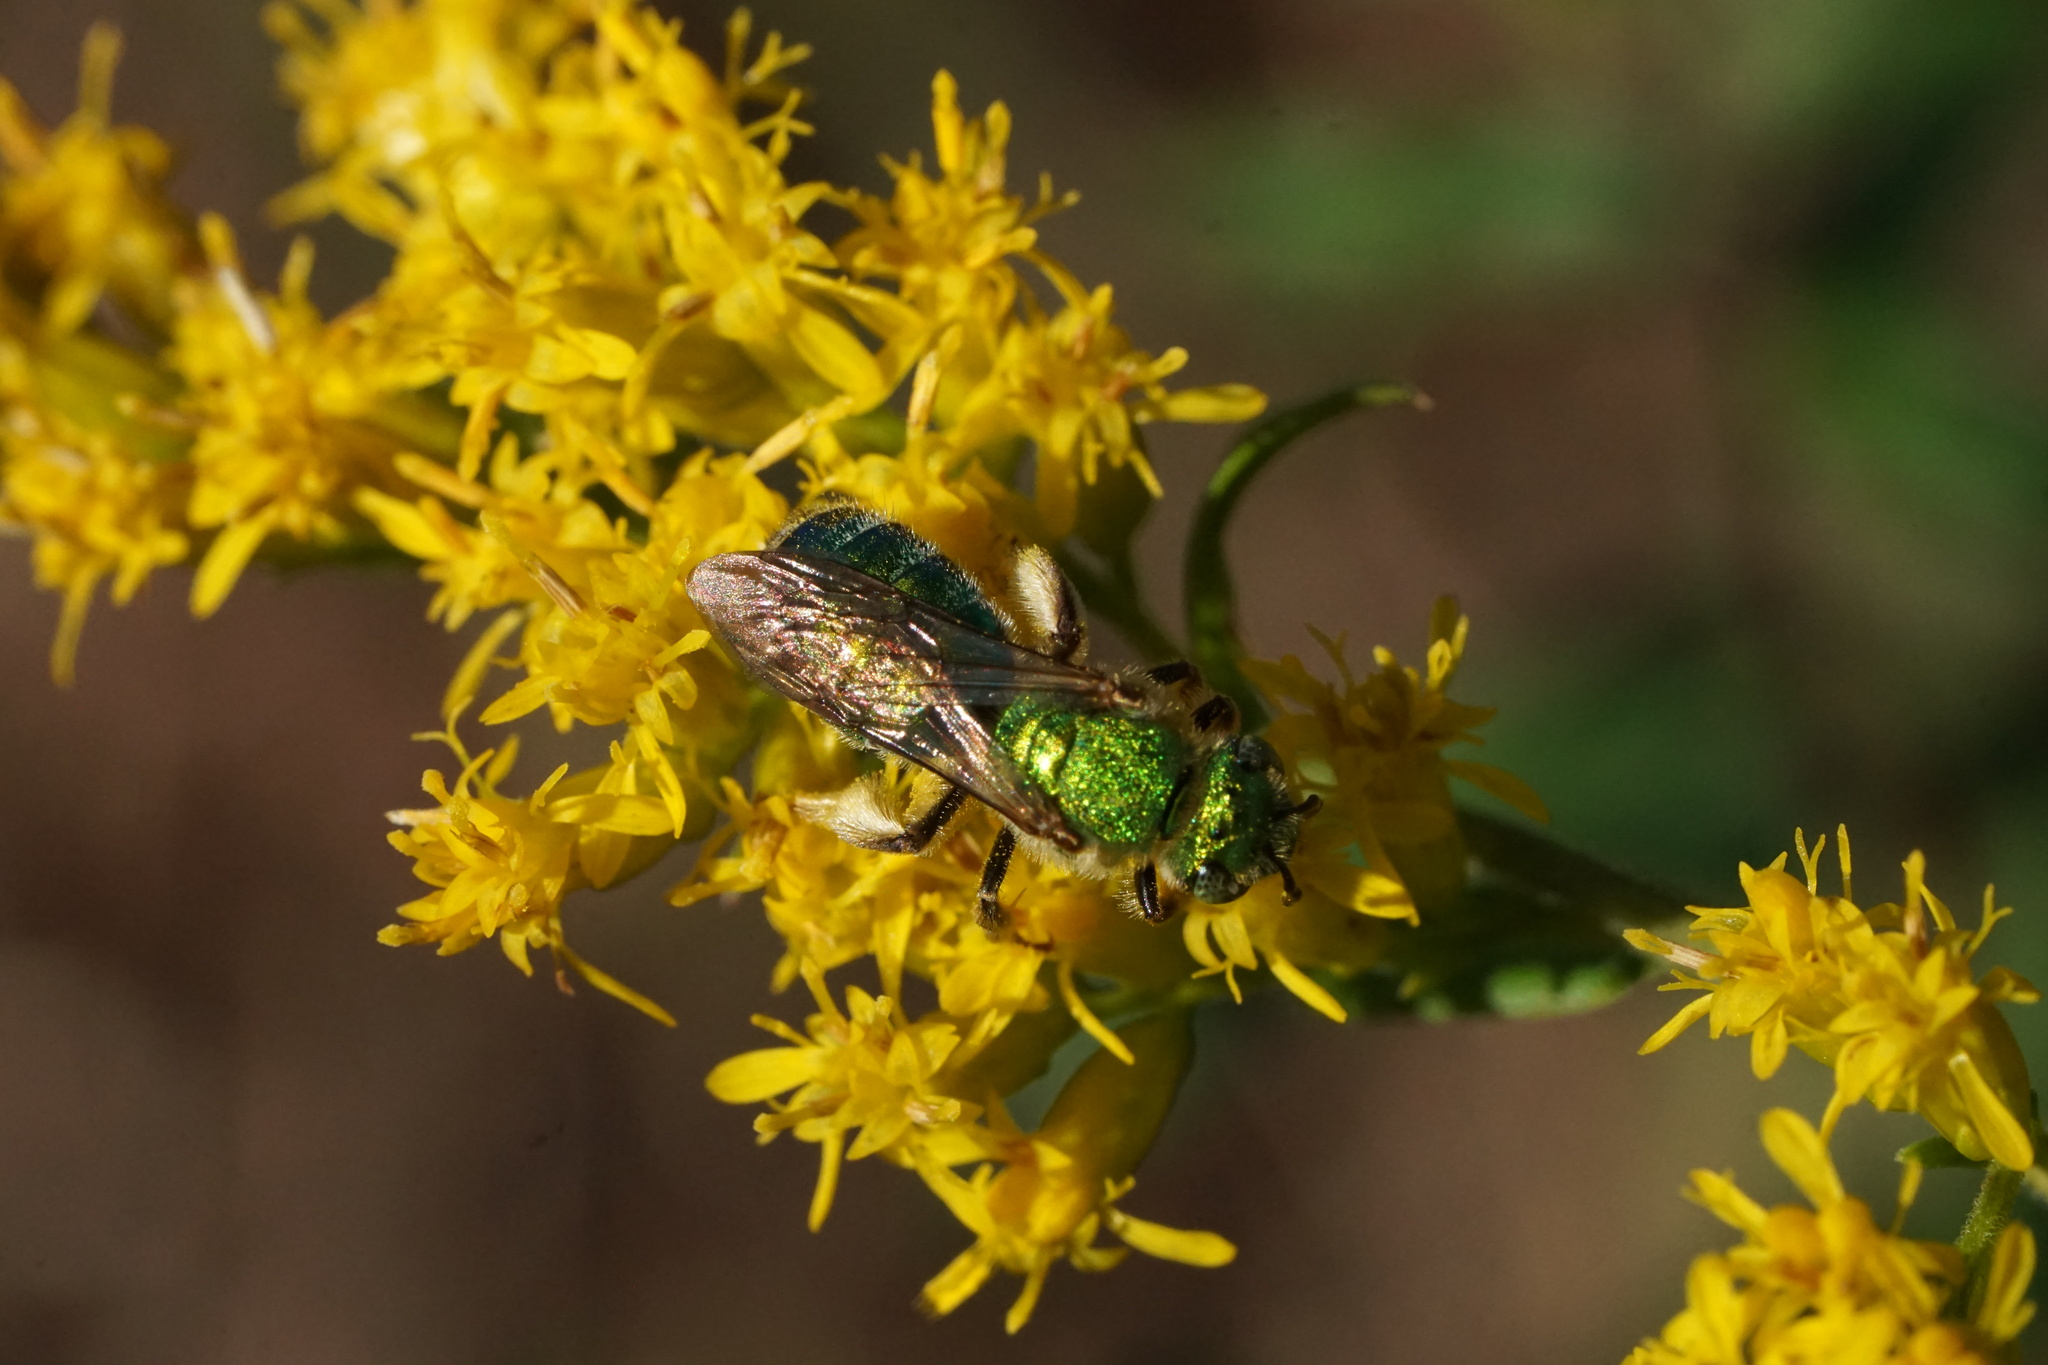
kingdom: Animalia
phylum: Arthropoda
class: Insecta
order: Hymenoptera
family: Halictidae
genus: Agapostemon
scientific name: Agapostemon sericeus
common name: Silky striped sweat bee
